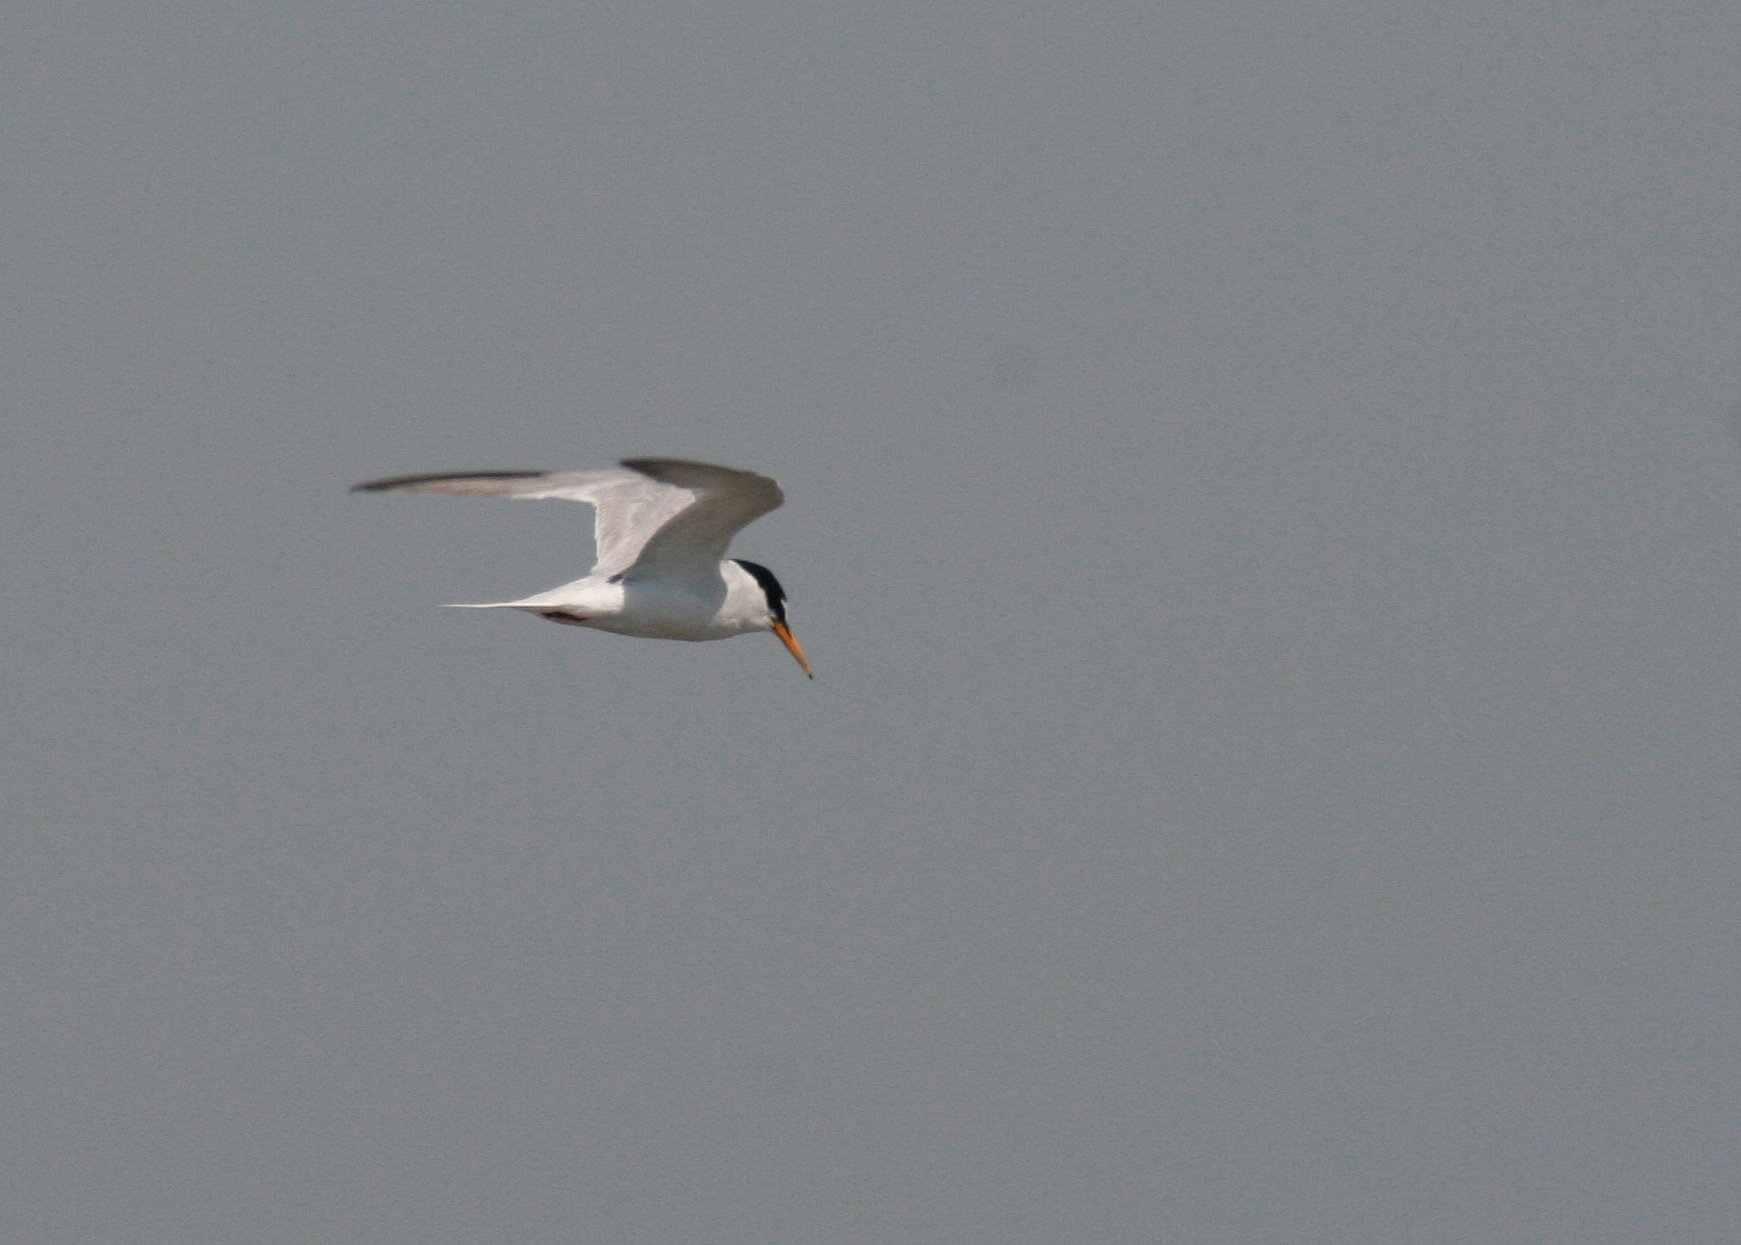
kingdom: Animalia
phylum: Chordata
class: Aves
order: Charadriiformes
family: Laridae
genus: Sternula
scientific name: Sternula albifrons
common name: Little tern
